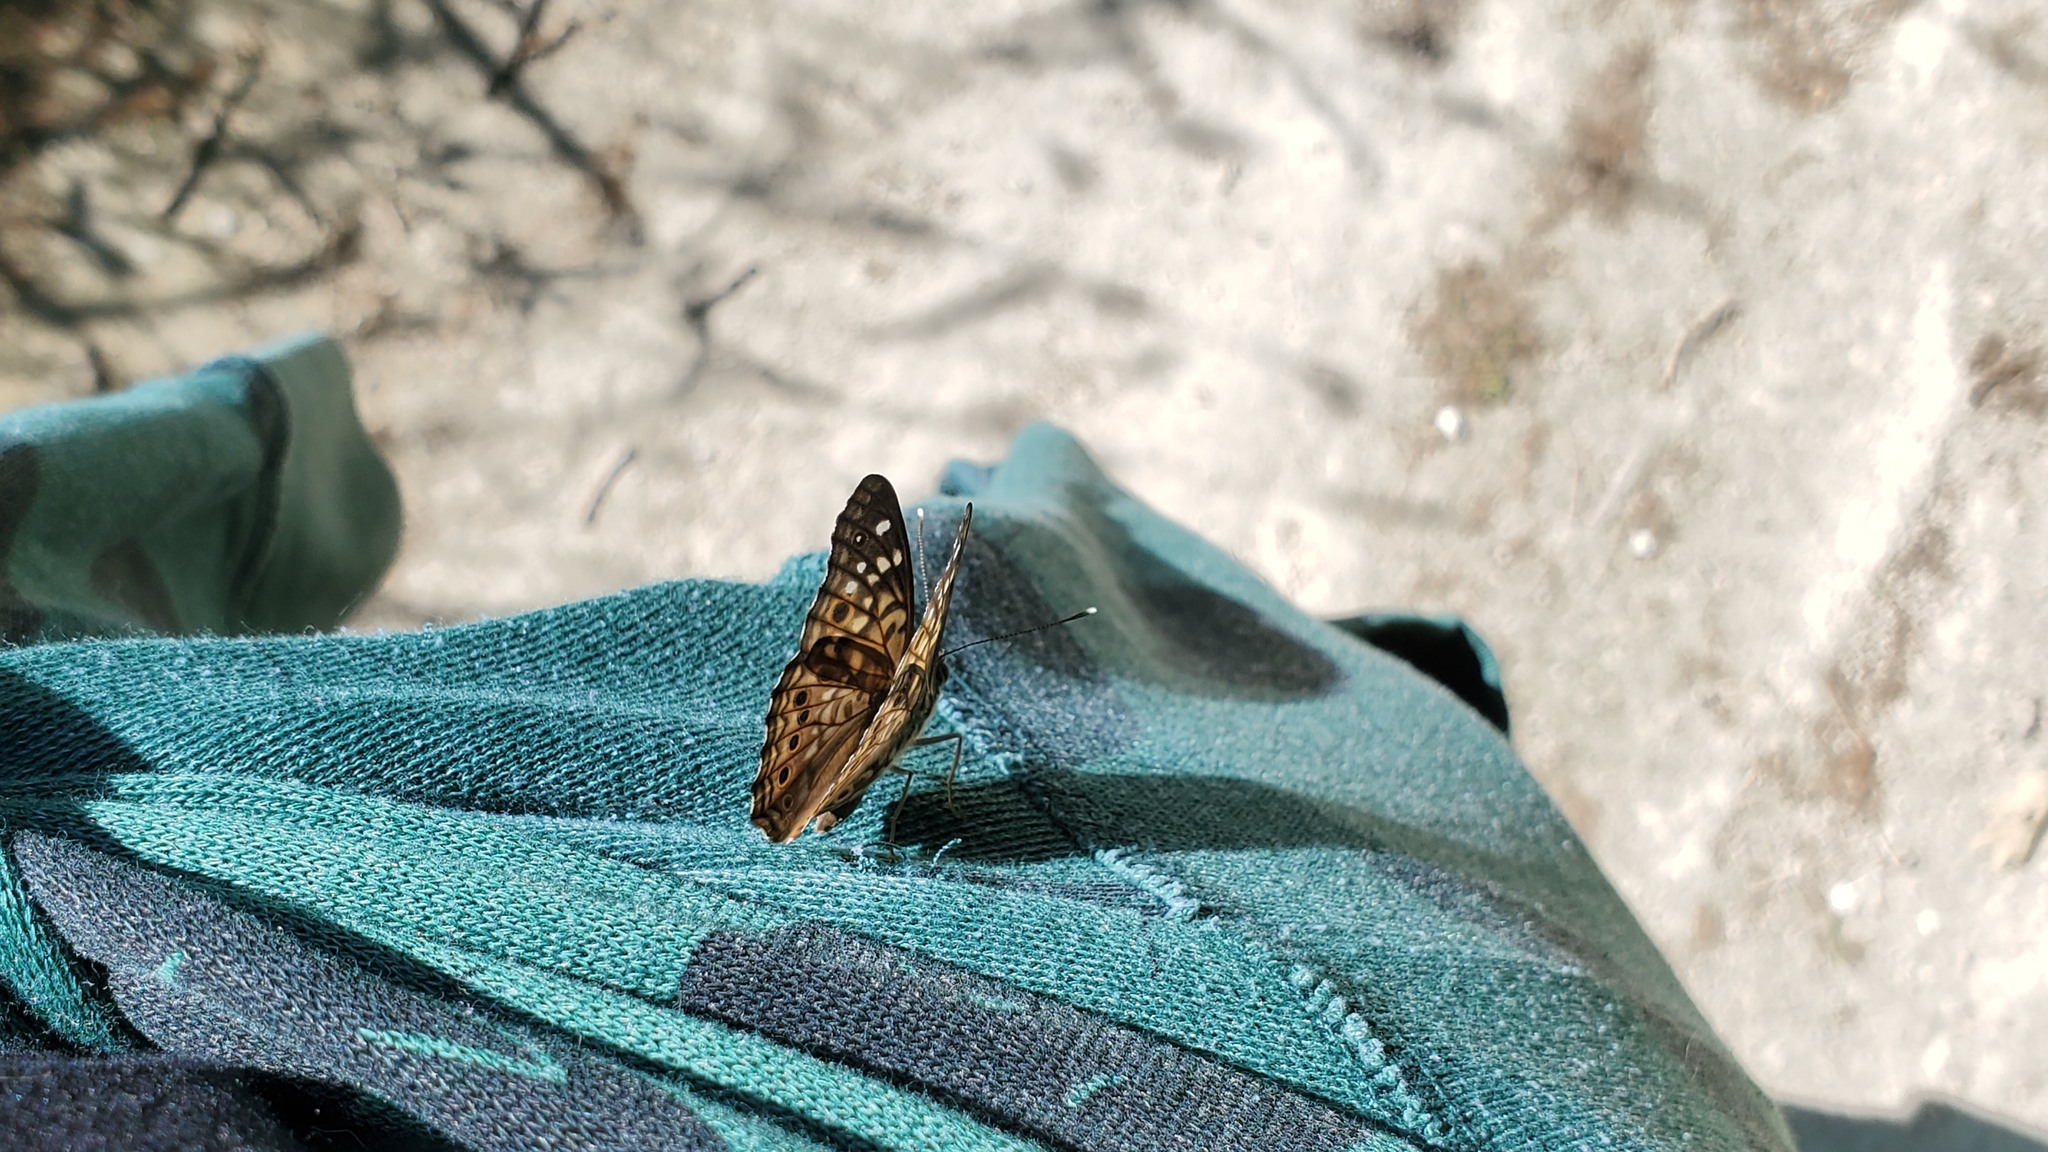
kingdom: Animalia
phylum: Arthropoda
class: Insecta
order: Lepidoptera
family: Nymphalidae
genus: Asterocampa
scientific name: Asterocampa celtis
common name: Hackberry emperor
